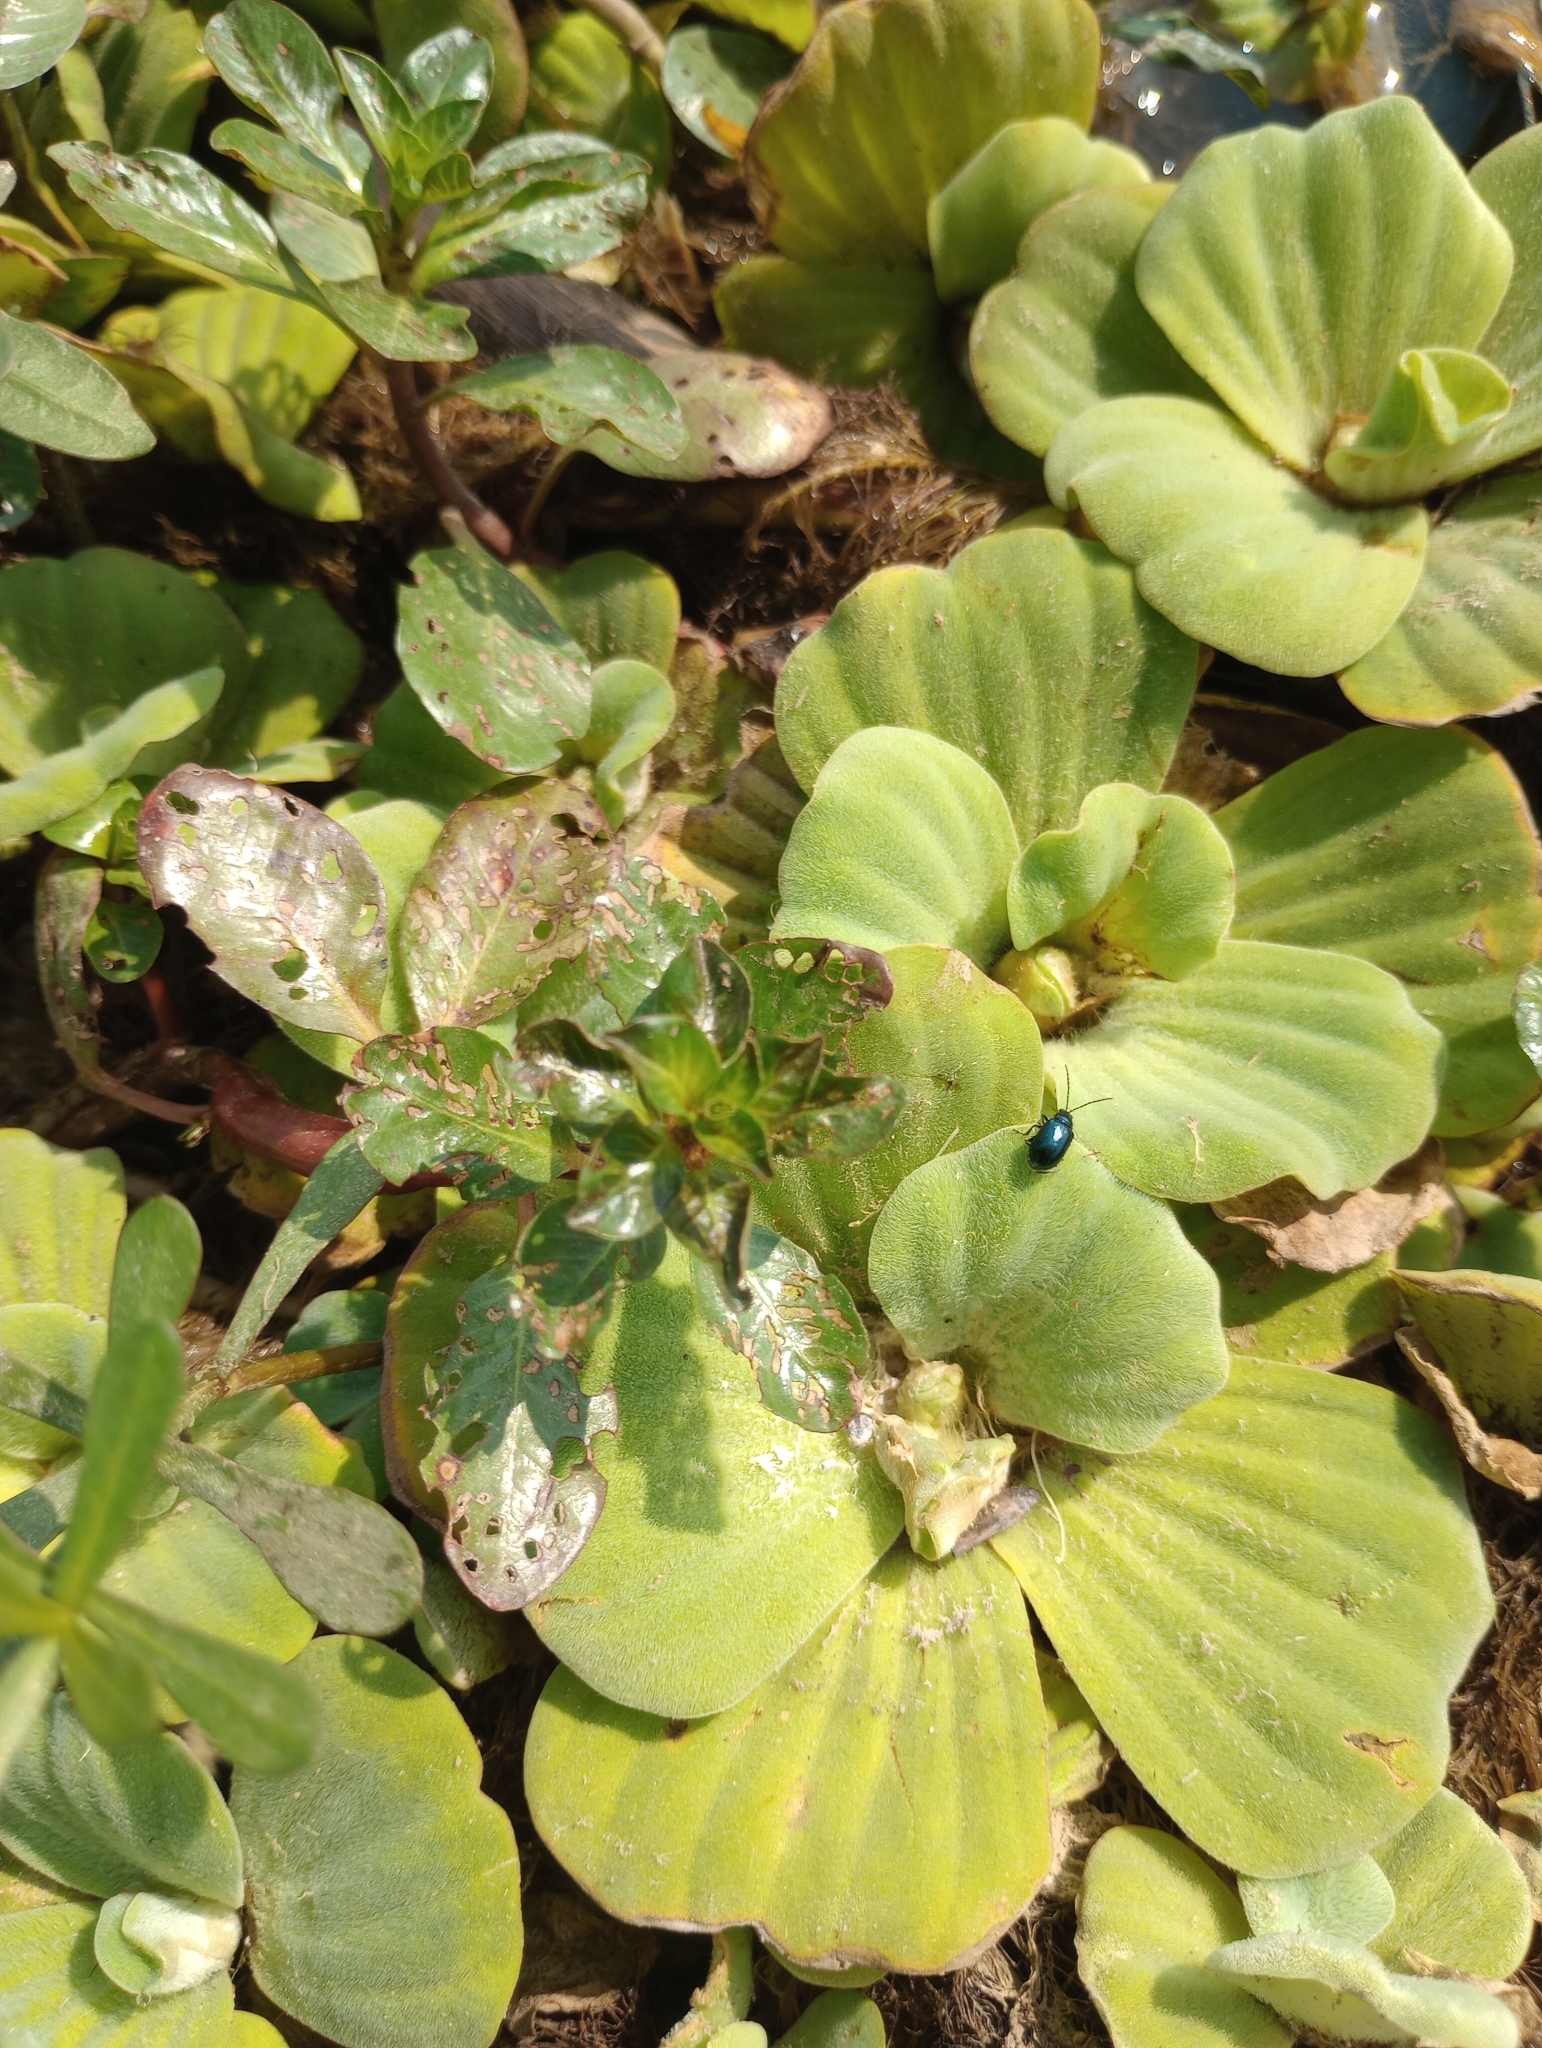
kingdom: Plantae
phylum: Tracheophyta
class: Liliopsida
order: Alismatales
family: Araceae
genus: Pistia
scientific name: Pistia stratiotes
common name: Water lettuce
